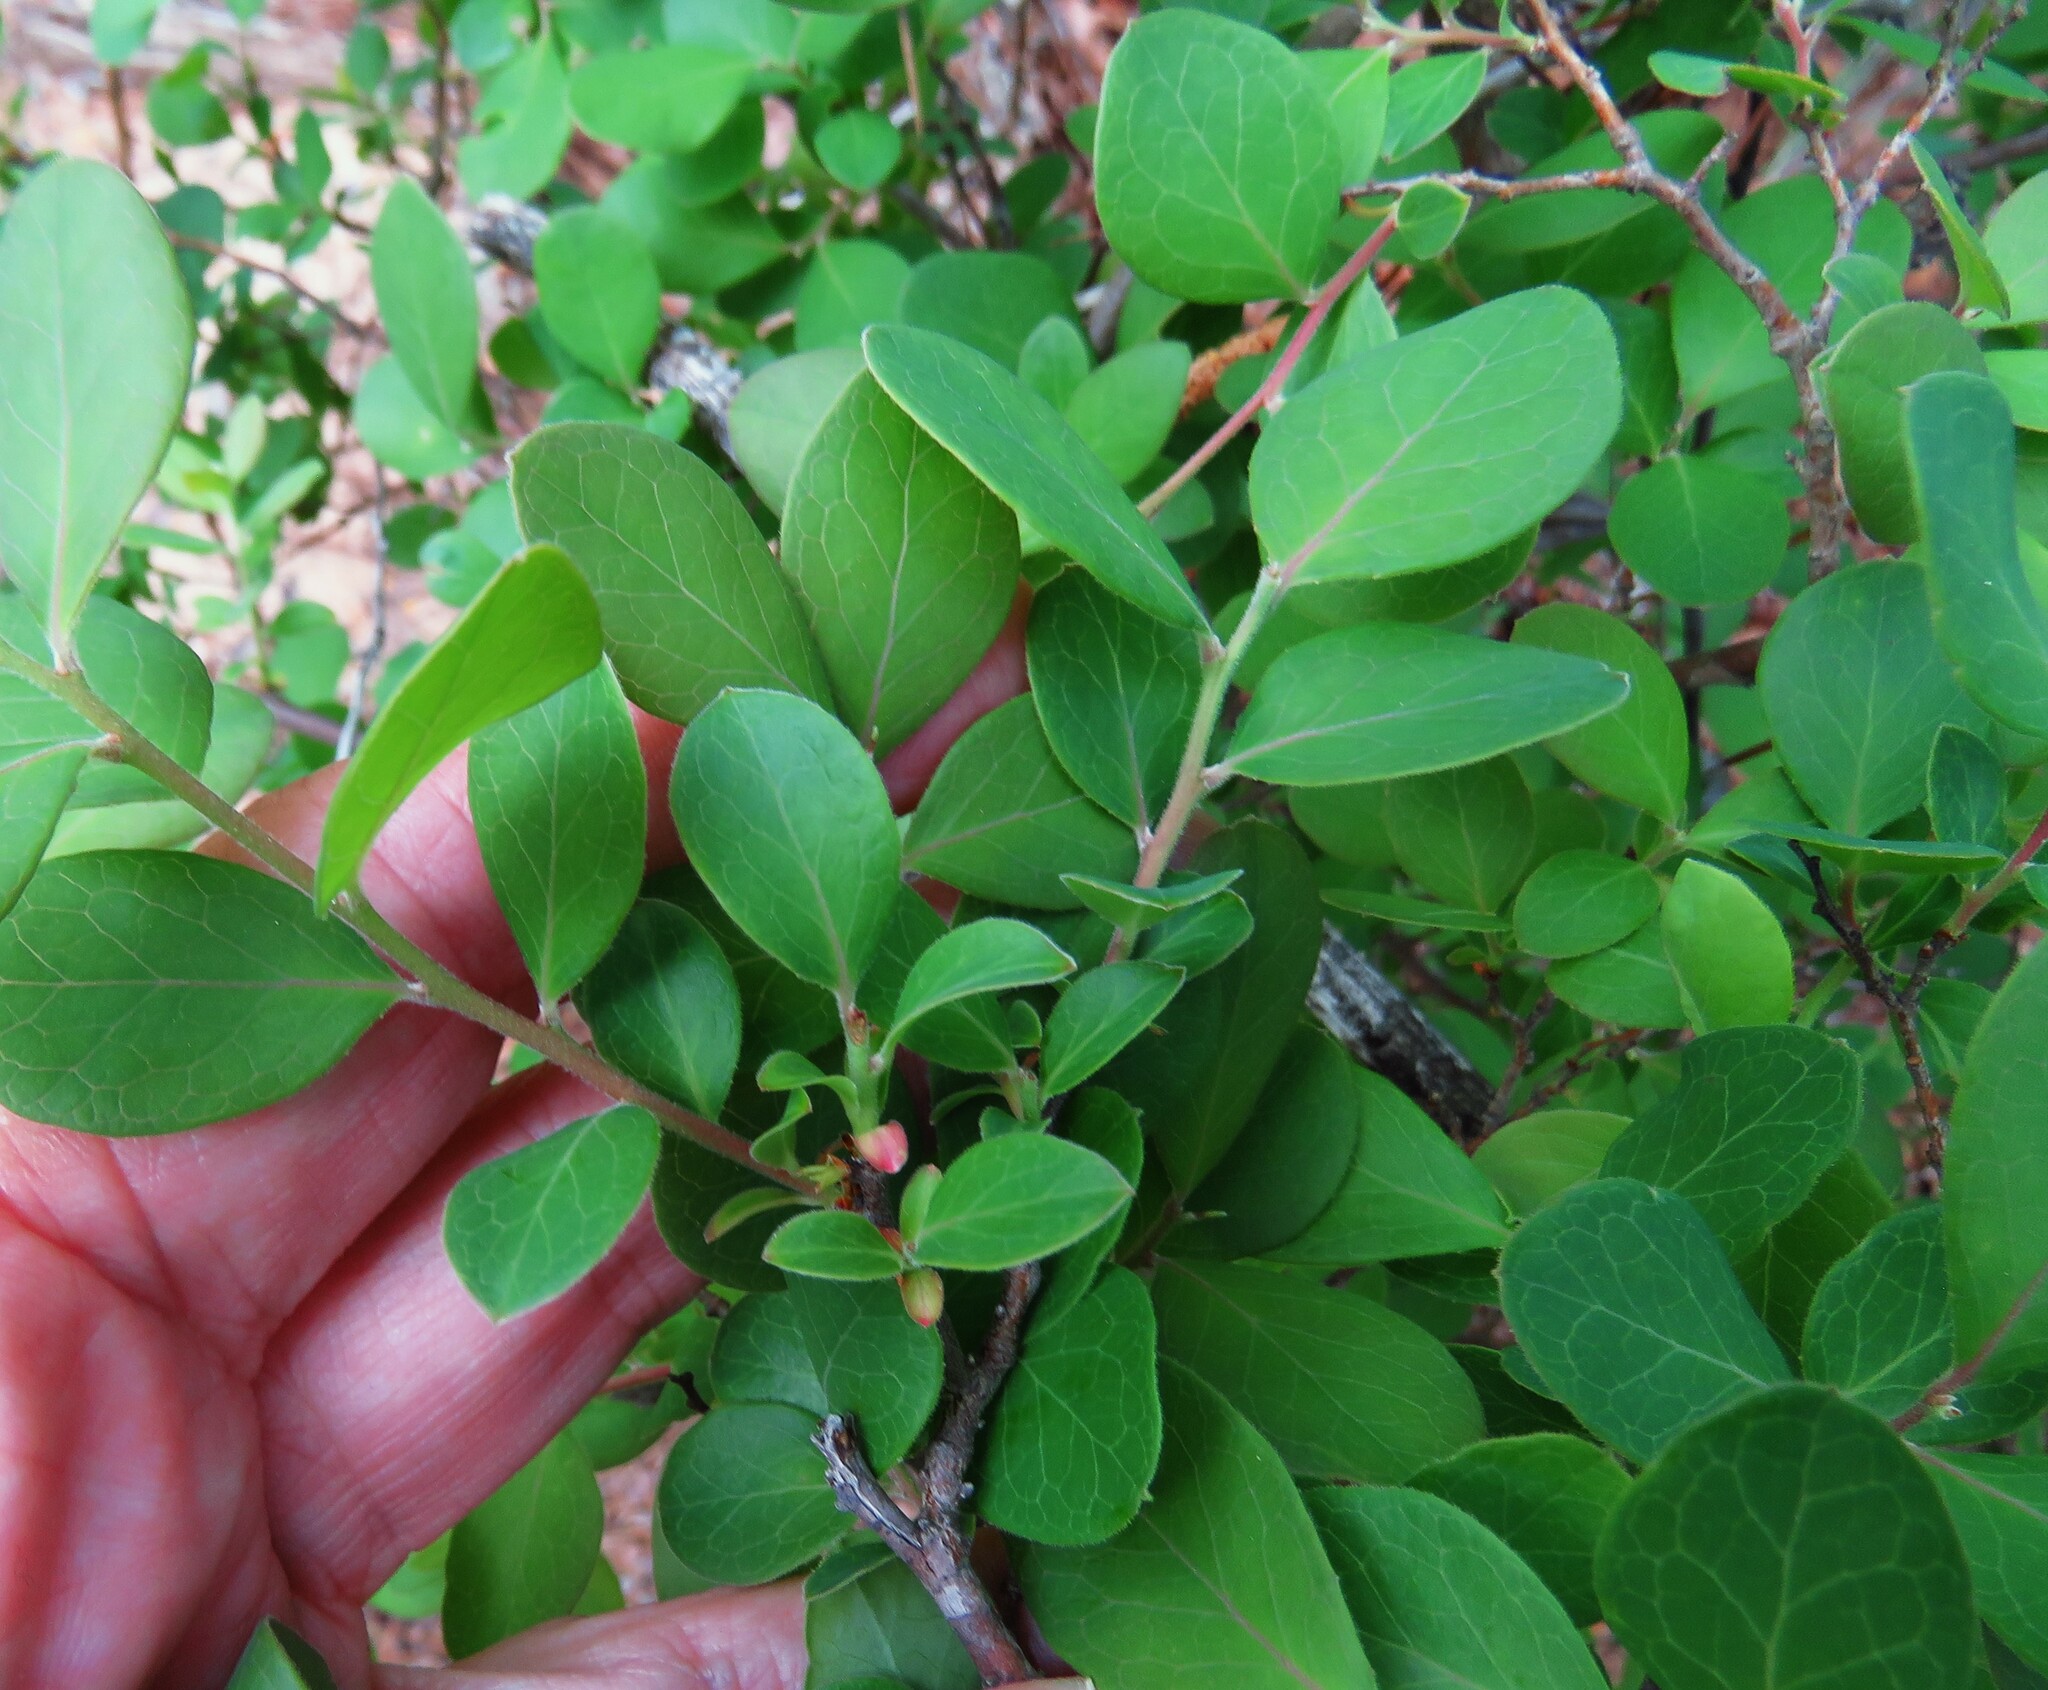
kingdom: Plantae
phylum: Tracheophyta
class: Magnoliopsida
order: Ericales
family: Ericaceae
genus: Vaccinium
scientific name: Vaccinium arboreum
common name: Farkleberry
